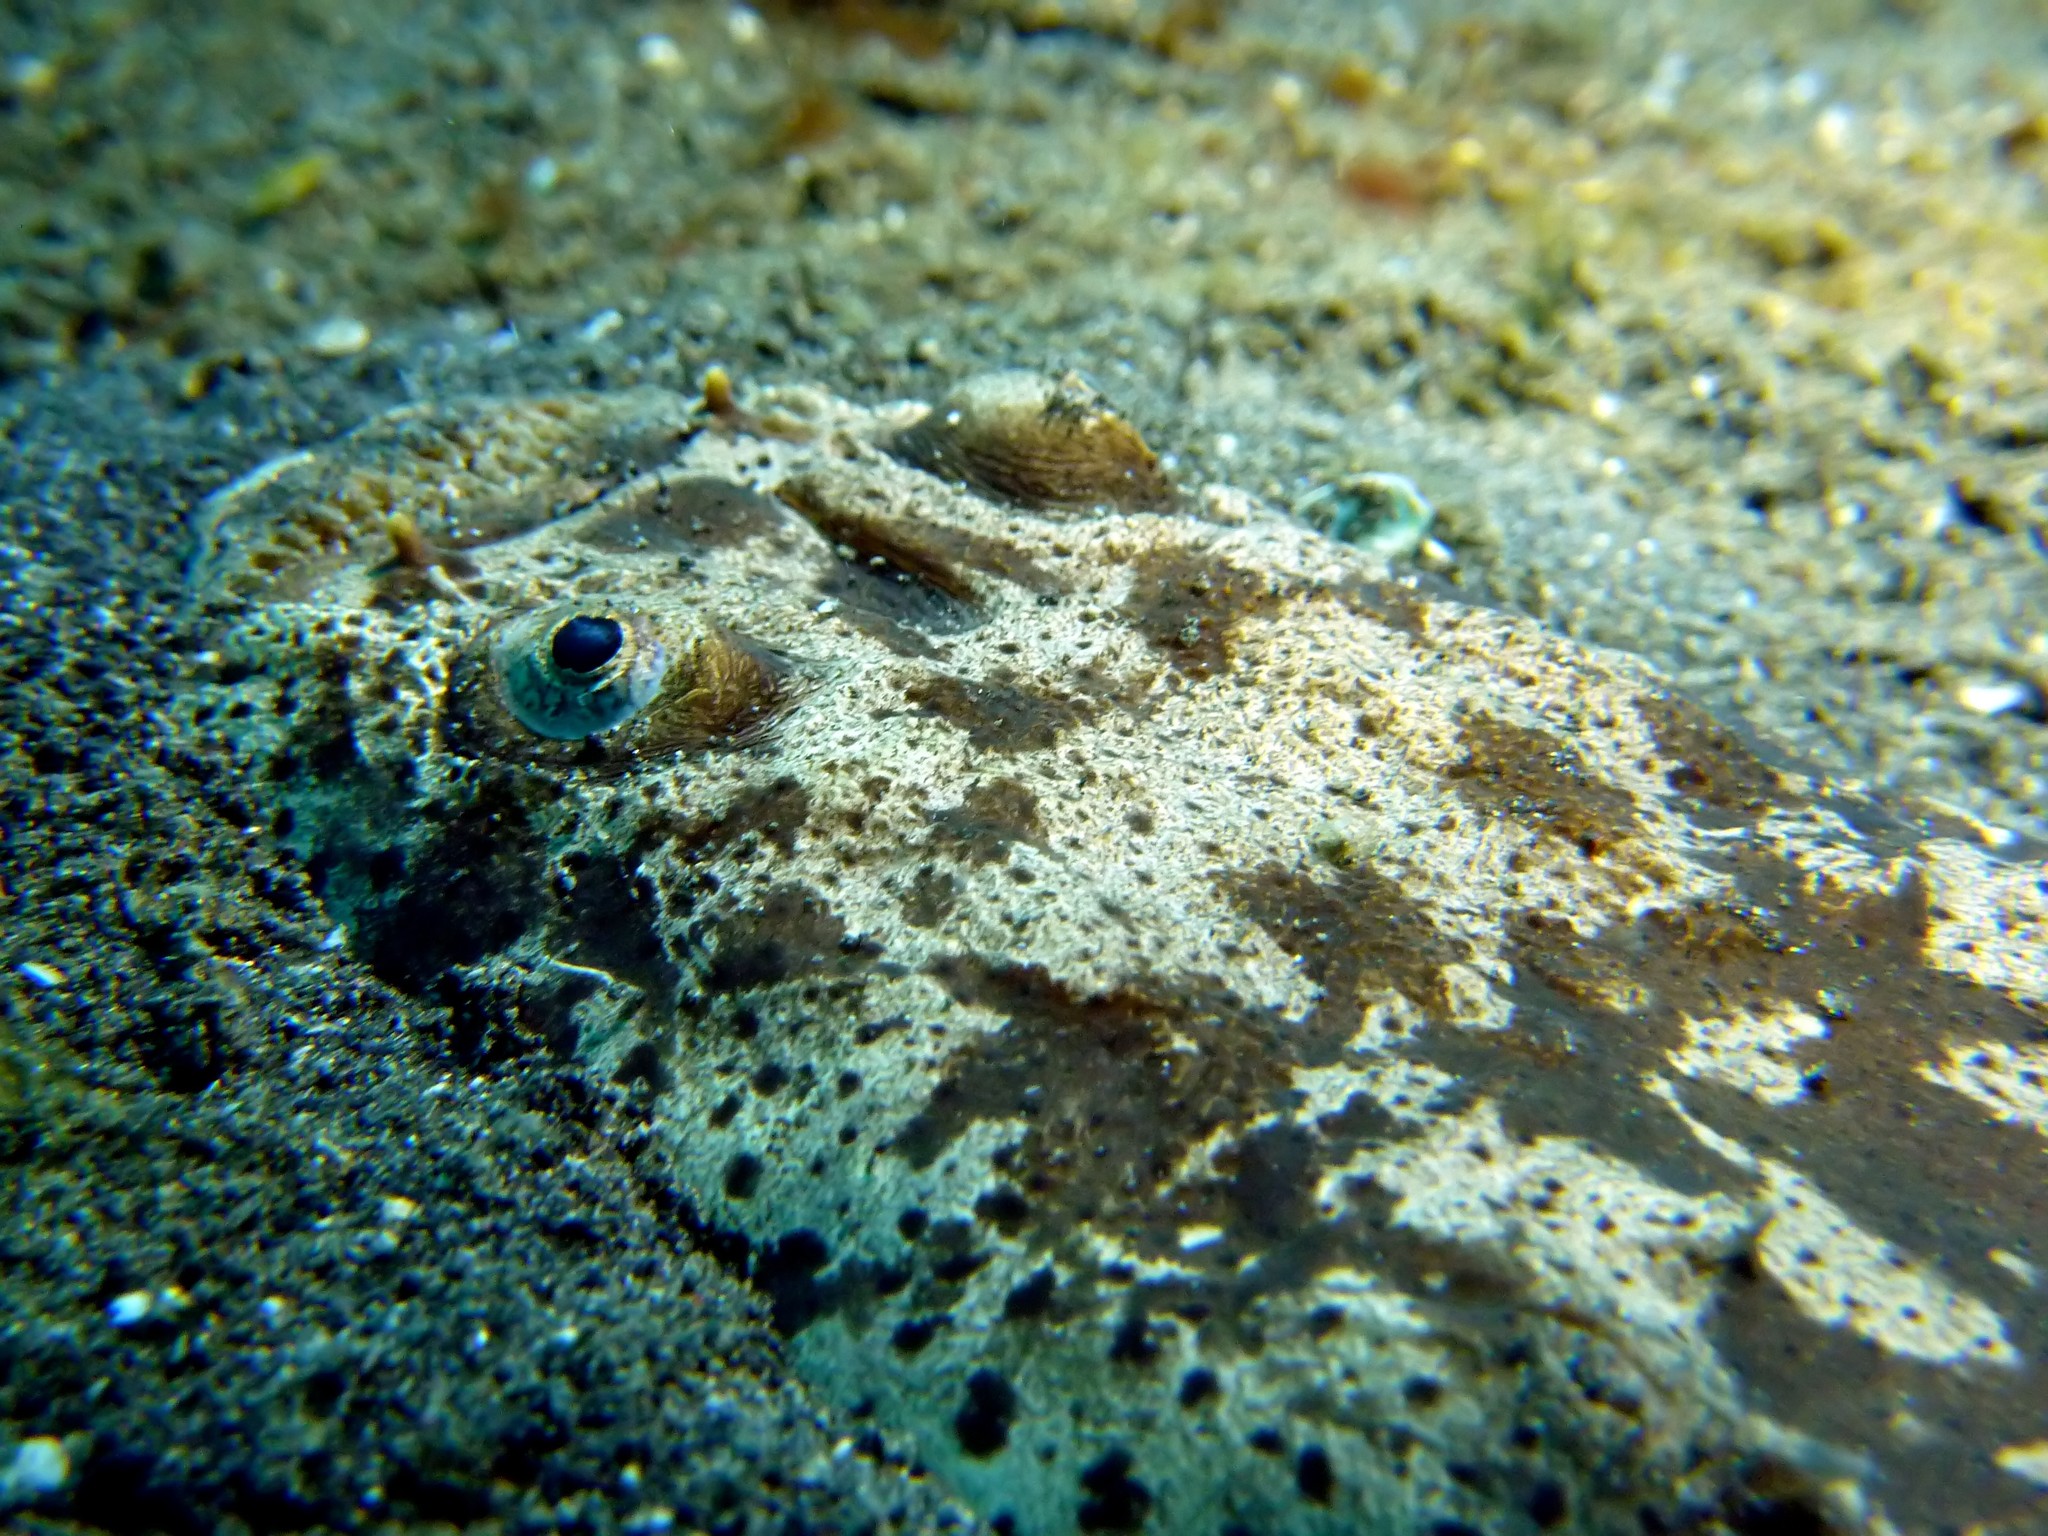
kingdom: Animalia
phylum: Chordata
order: Perciformes
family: Uranoscopidae
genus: Uranoscopus
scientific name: Uranoscopus bicinctus
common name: Marbled stargazer
